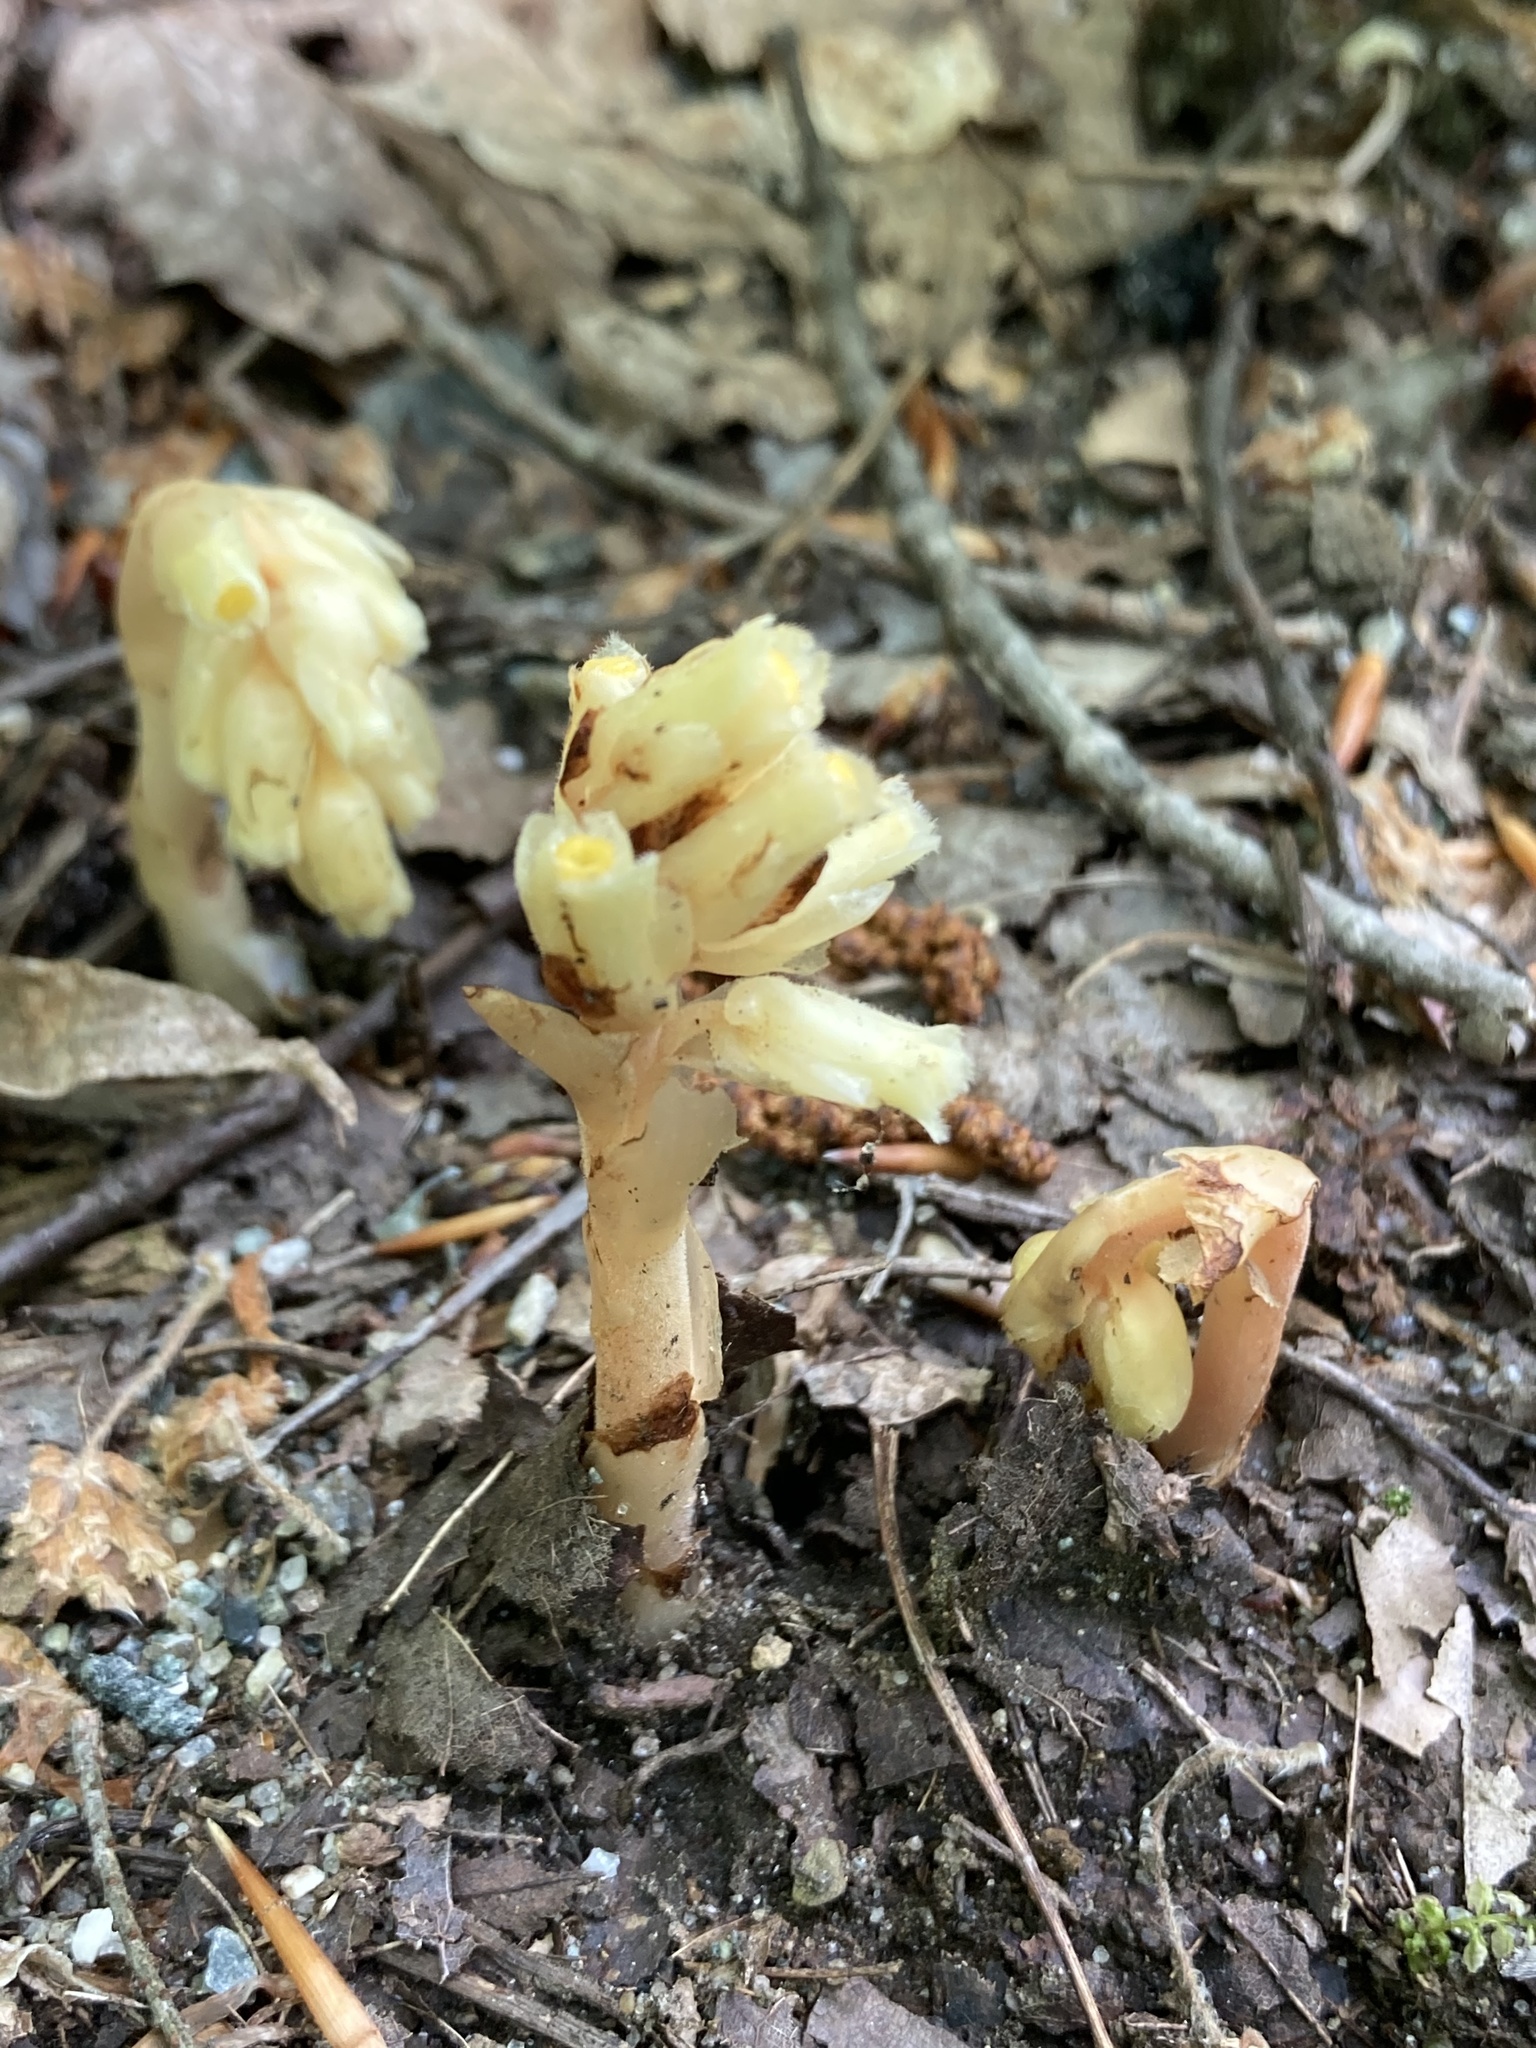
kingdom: Plantae
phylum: Tracheophyta
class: Magnoliopsida
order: Ericales
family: Ericaceae
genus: Hypopitys
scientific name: Hypopitys monotropa
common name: Yellow bird's-nest
